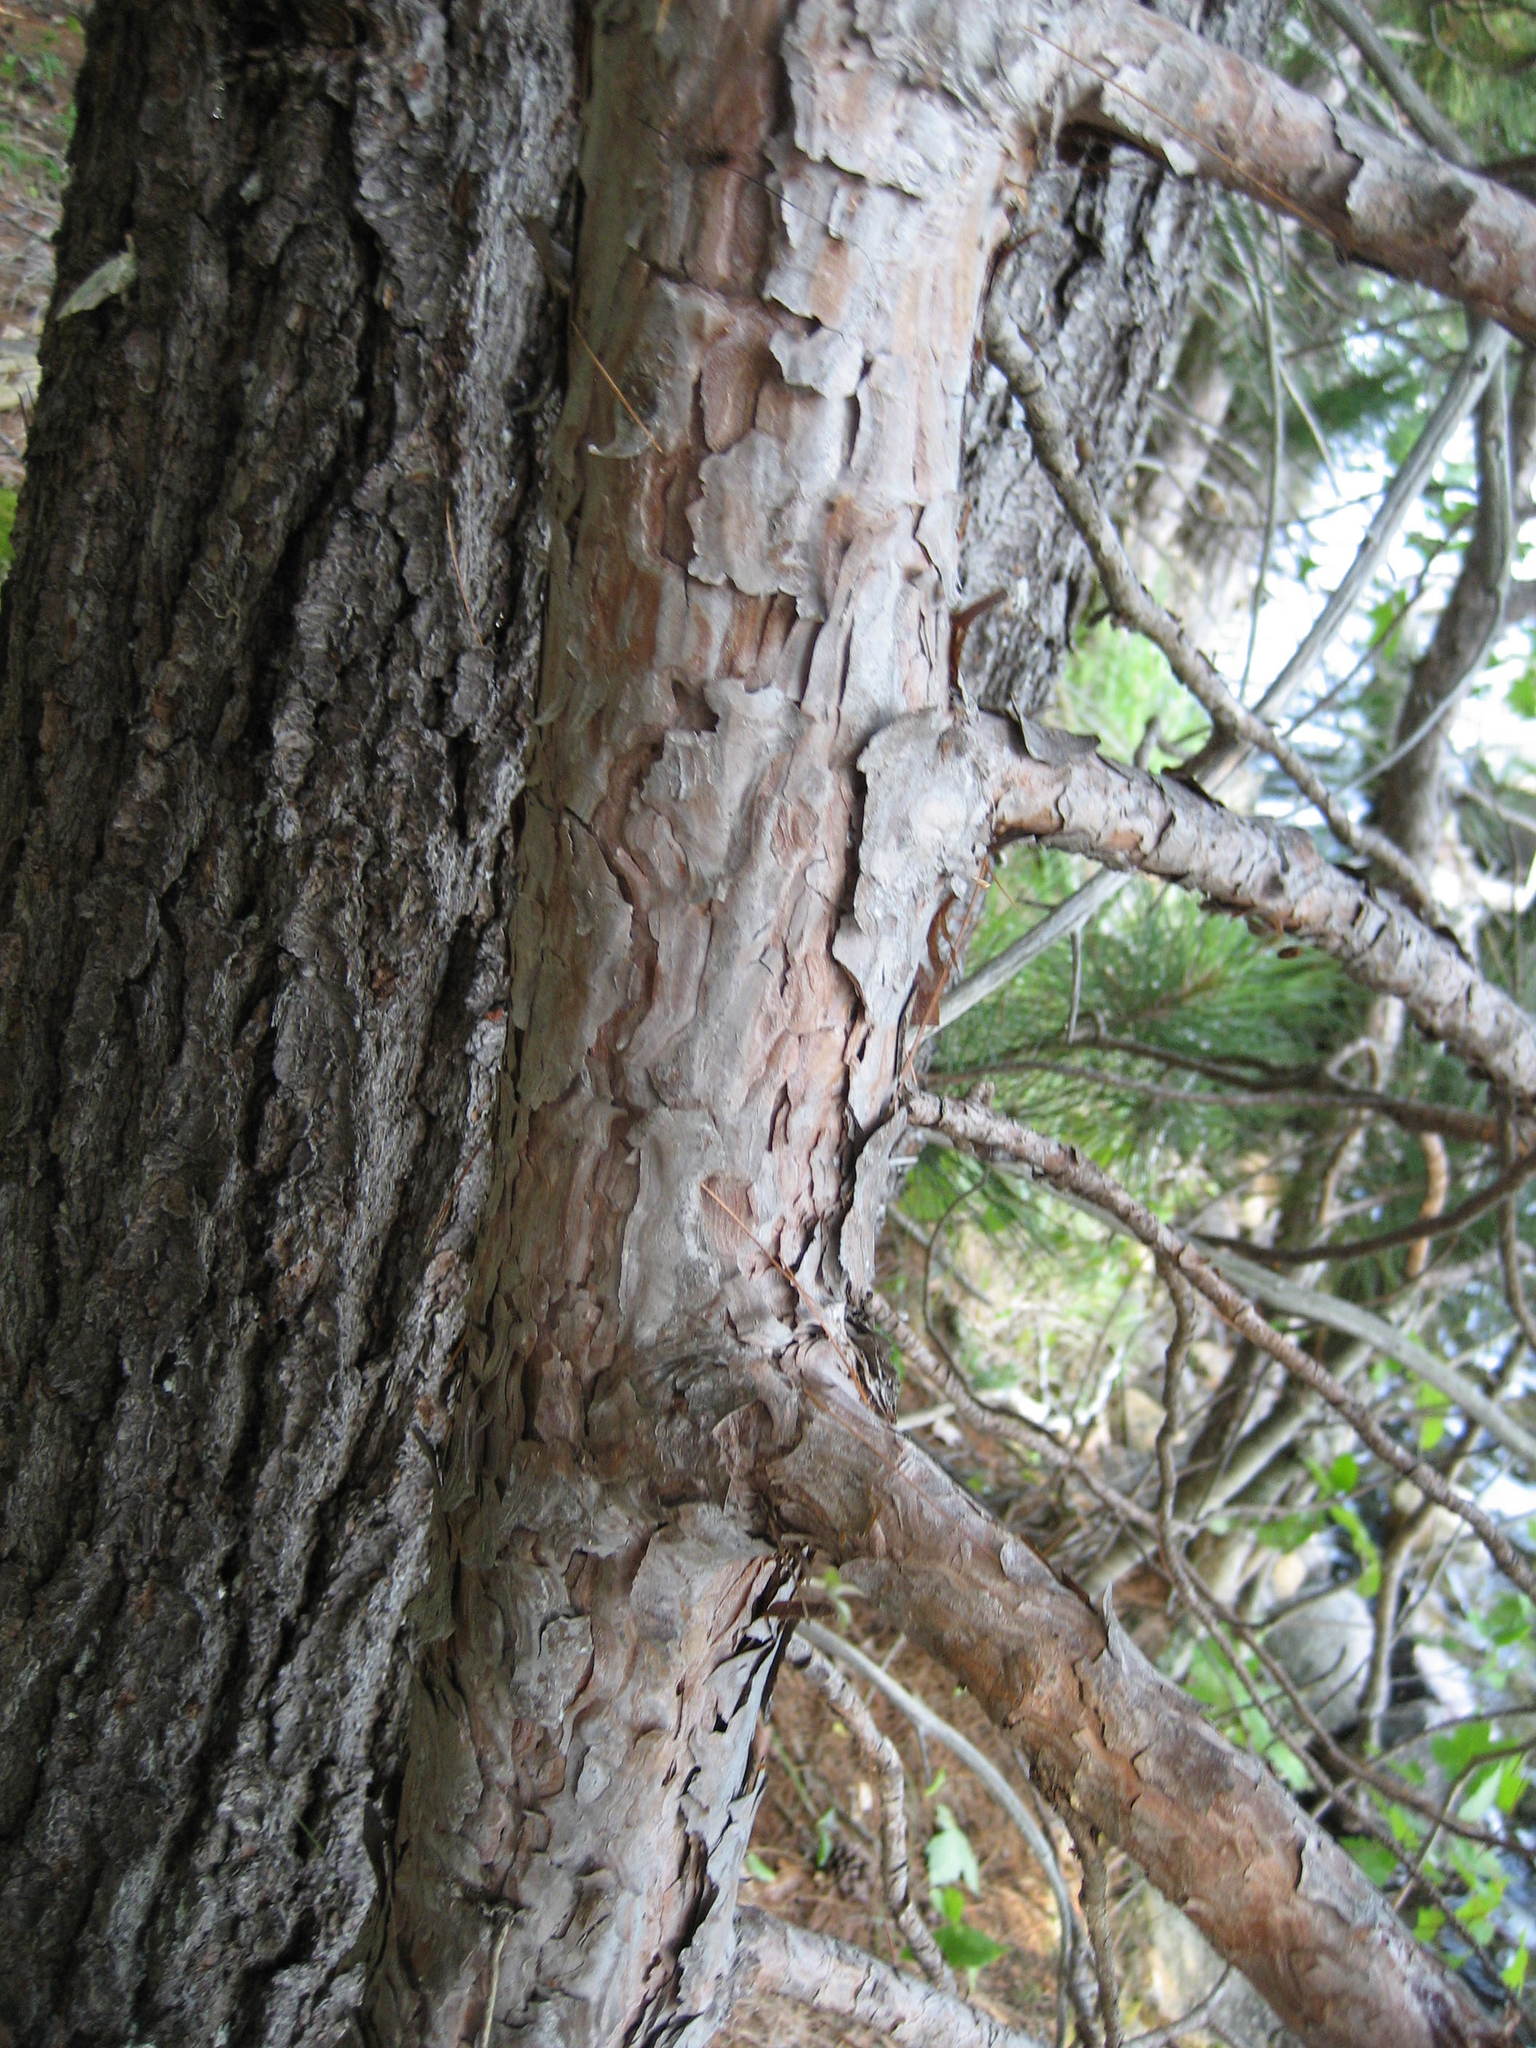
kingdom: Plantae
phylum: Tracheophyta
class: Pinopsida
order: Pinales
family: Pinaceae
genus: Pinus
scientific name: Pinus resinosa
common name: Norway pine
